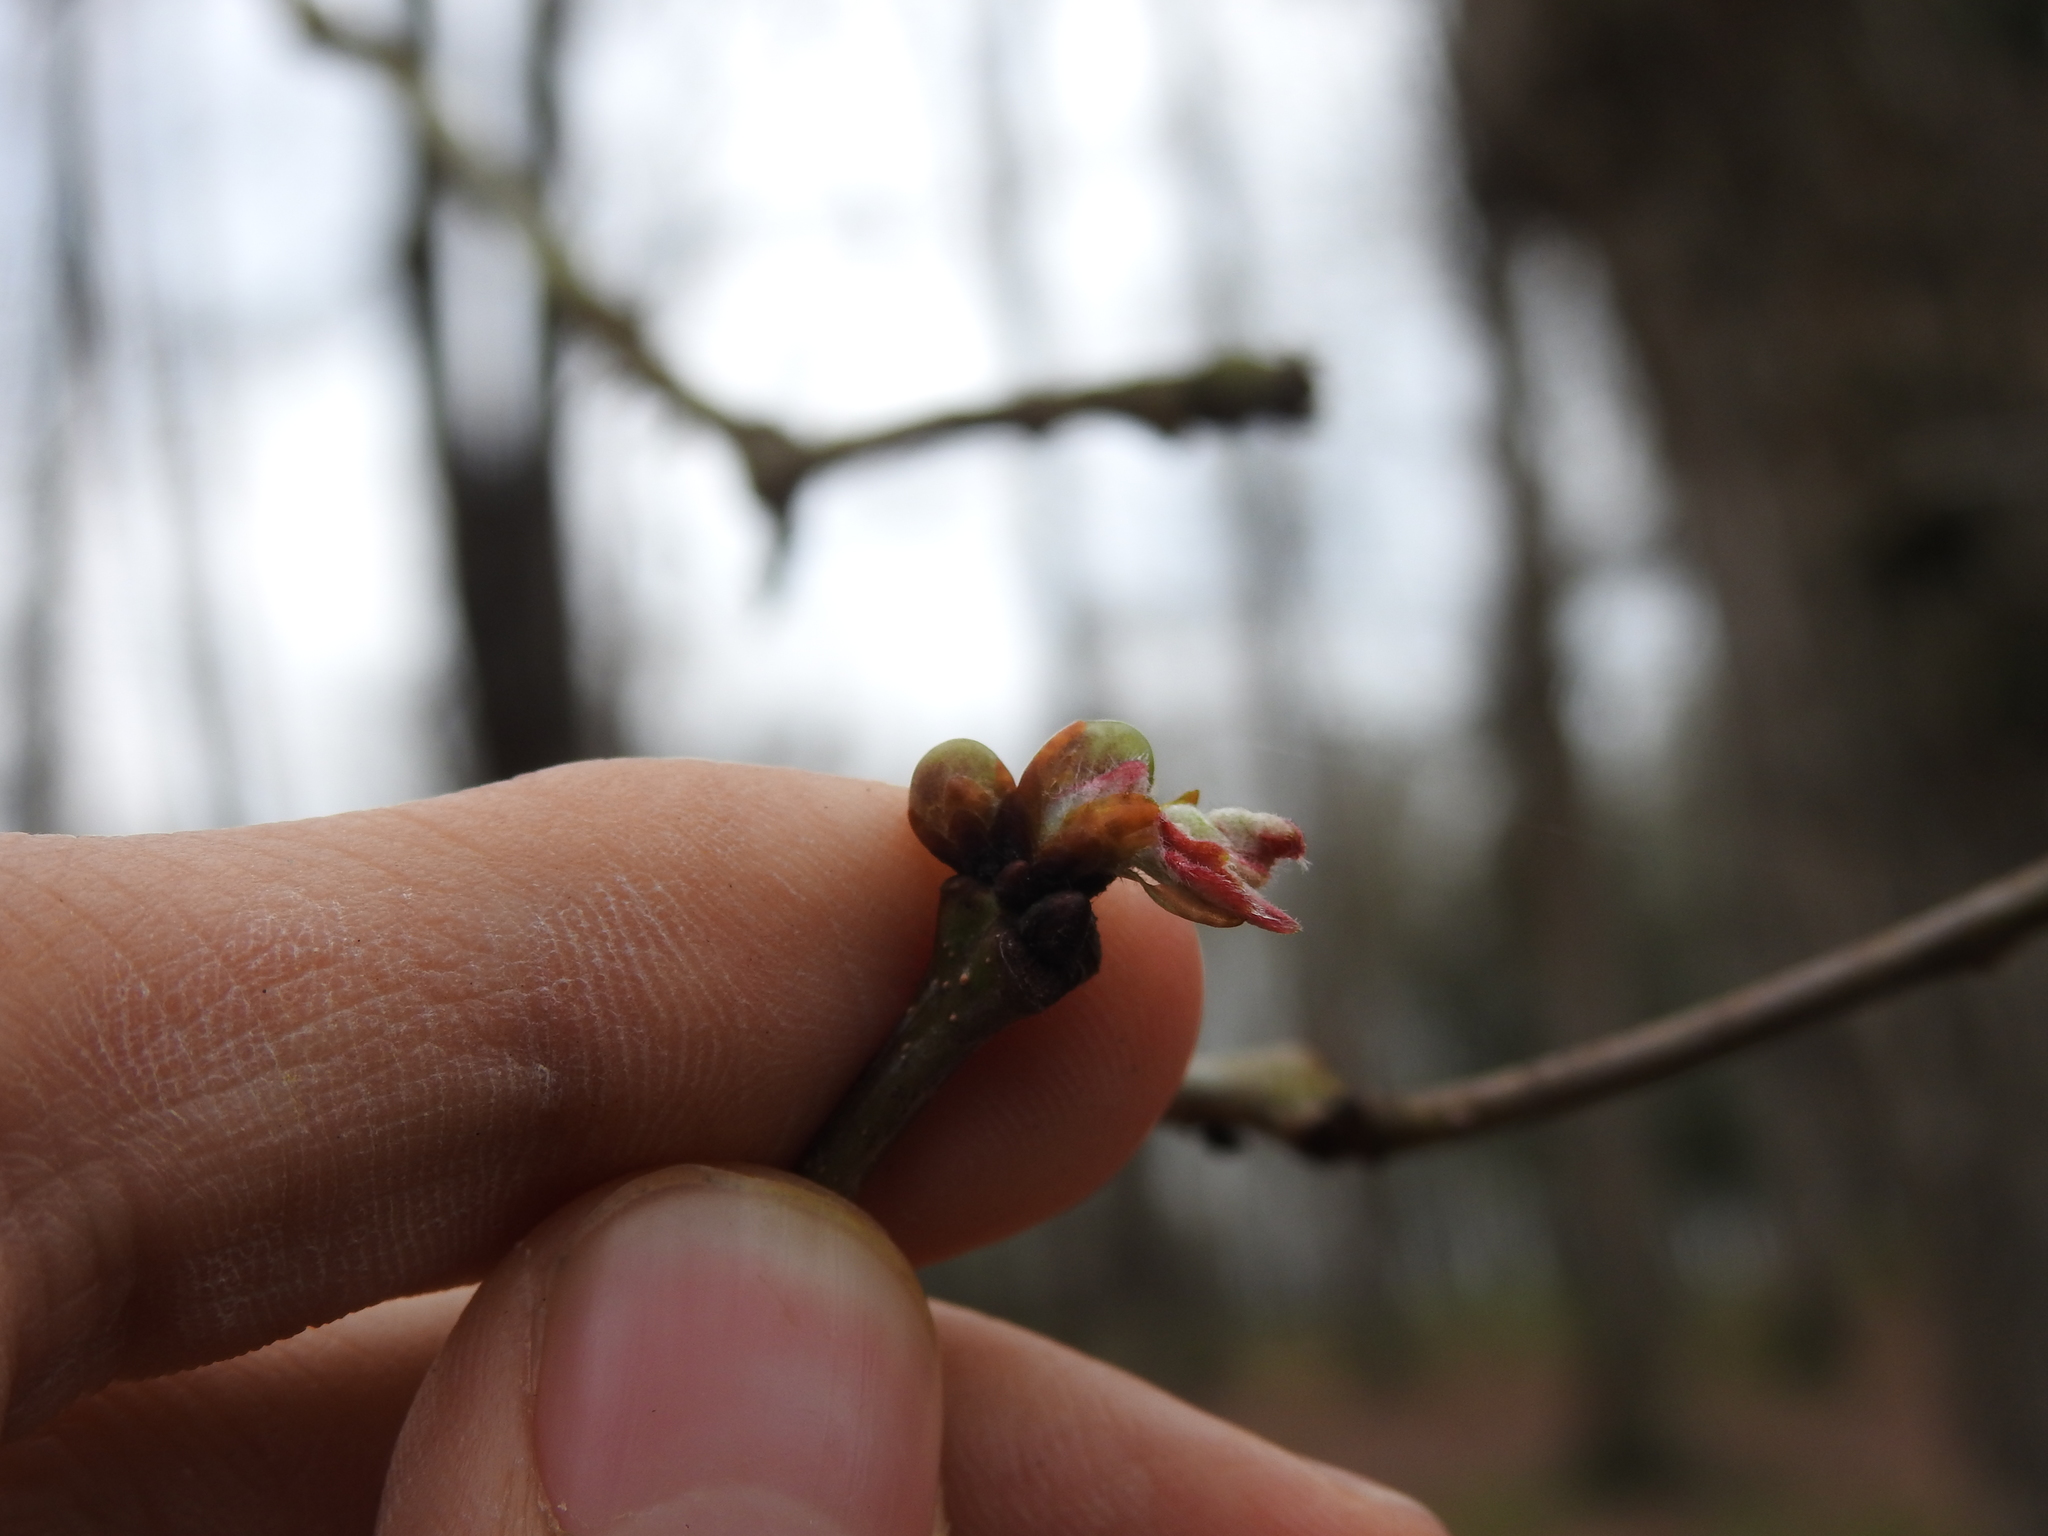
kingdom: Animalia
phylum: Arthropoda
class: Insecta
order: Hymenoptera
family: Cynipidae
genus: Neuroterus
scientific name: Neuroterus
